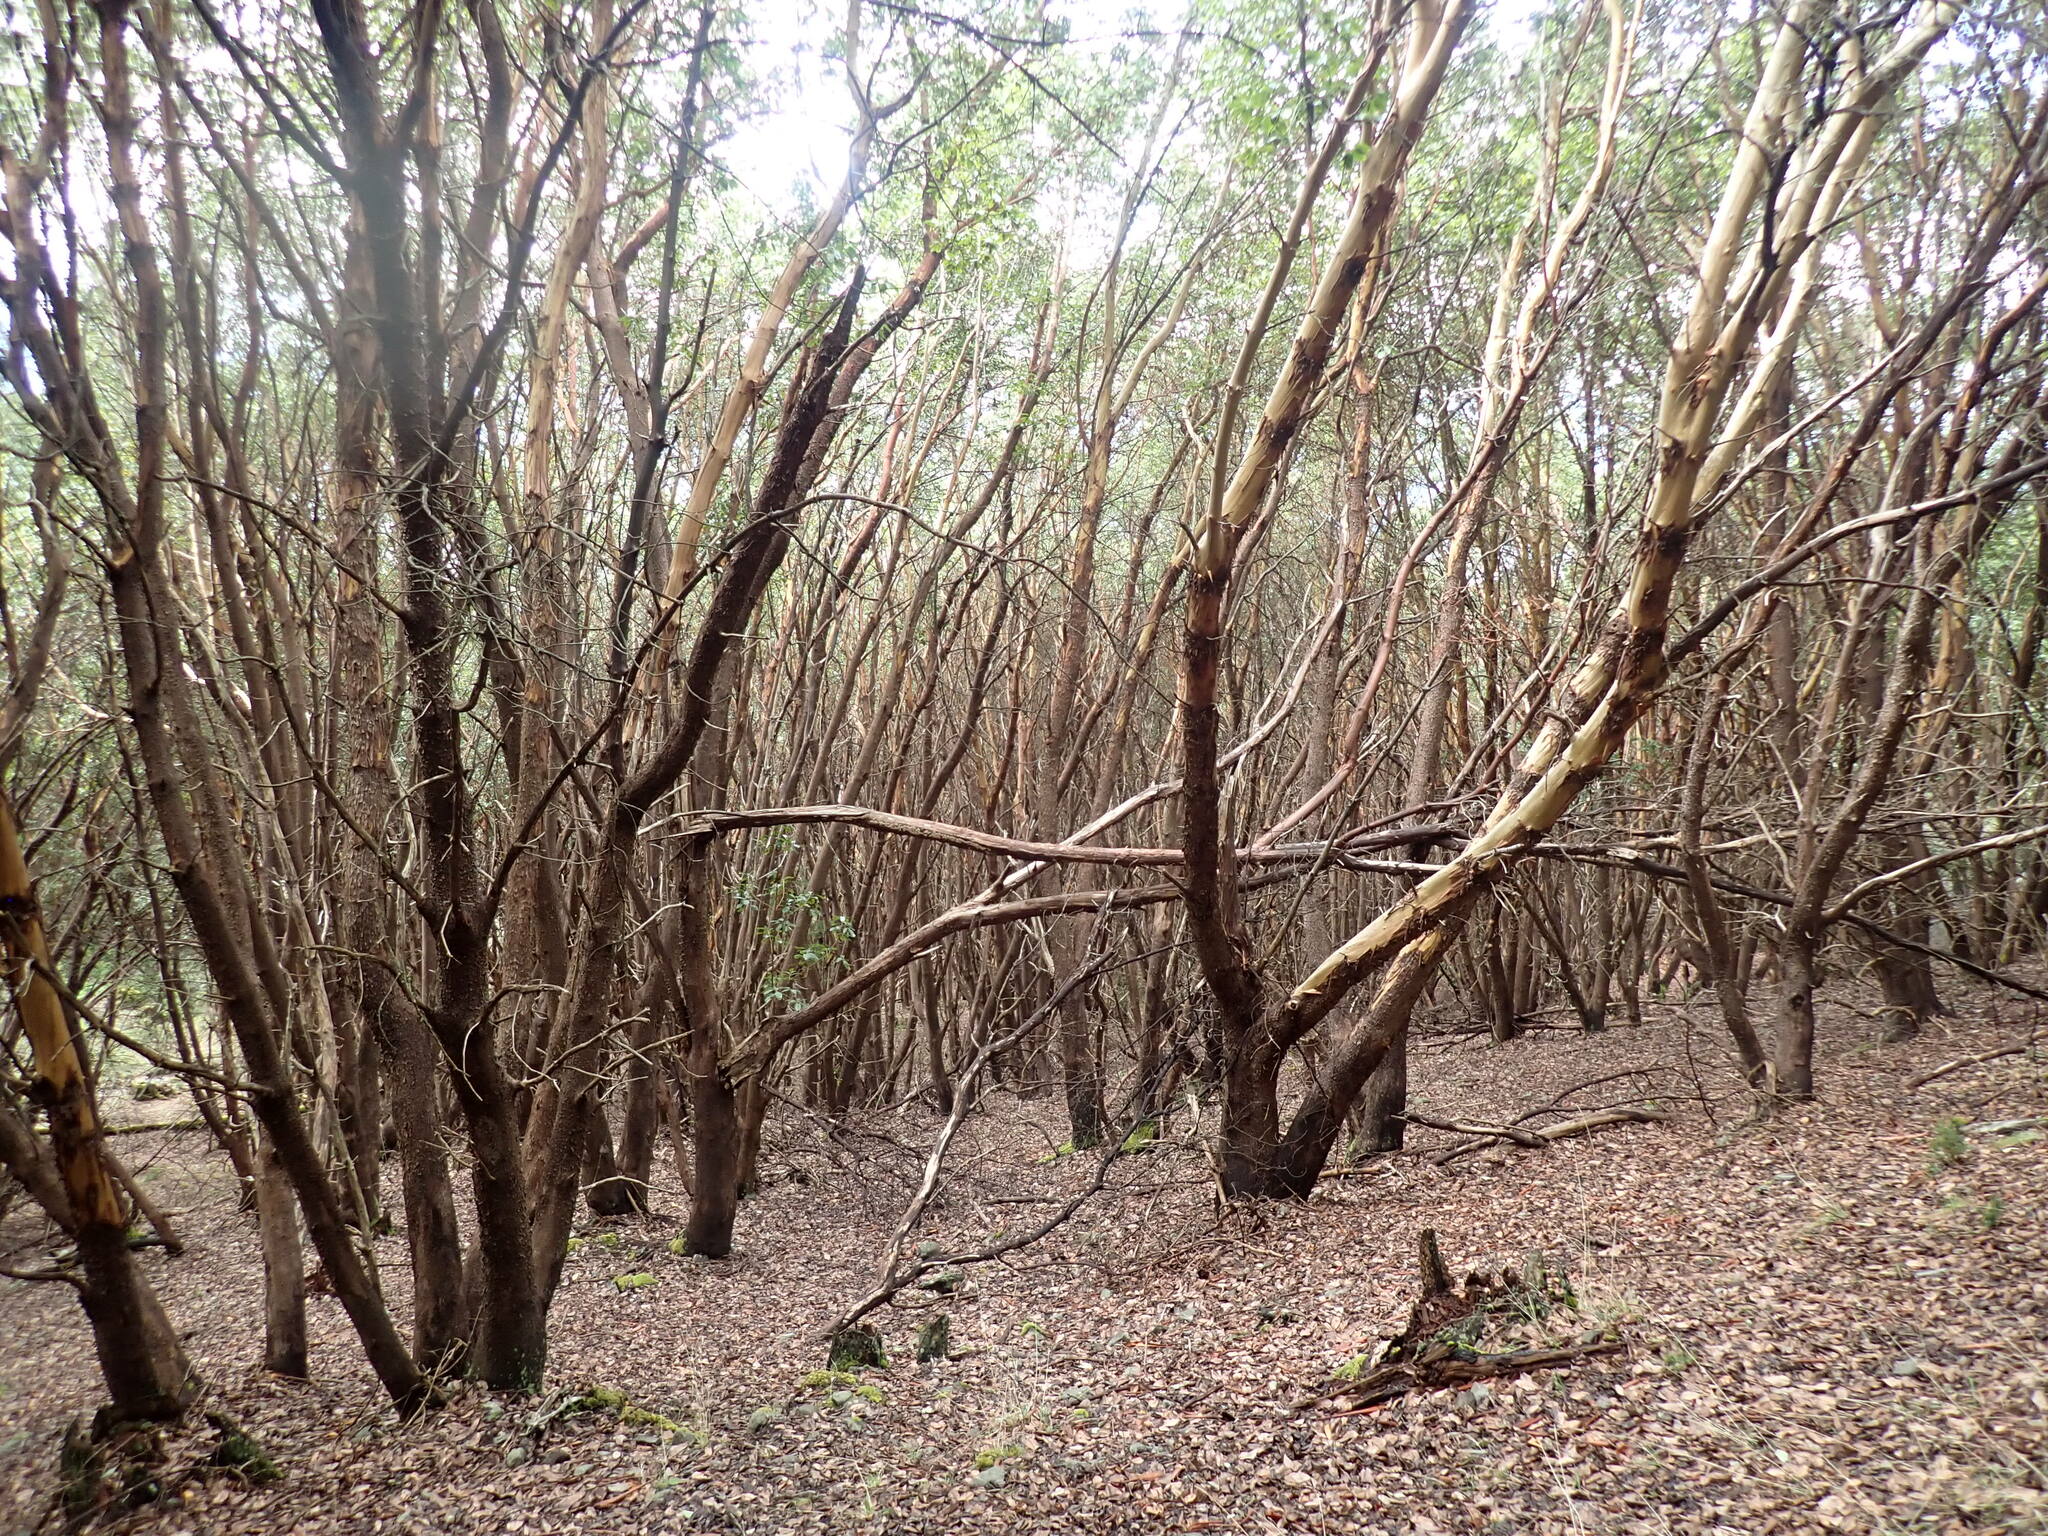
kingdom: Plantae
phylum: Tracheophyta
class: Magnoliopsida
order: Ericales
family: Ericaceae
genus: Arbutus
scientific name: Arbutus menziesii
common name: Pacific madrone
